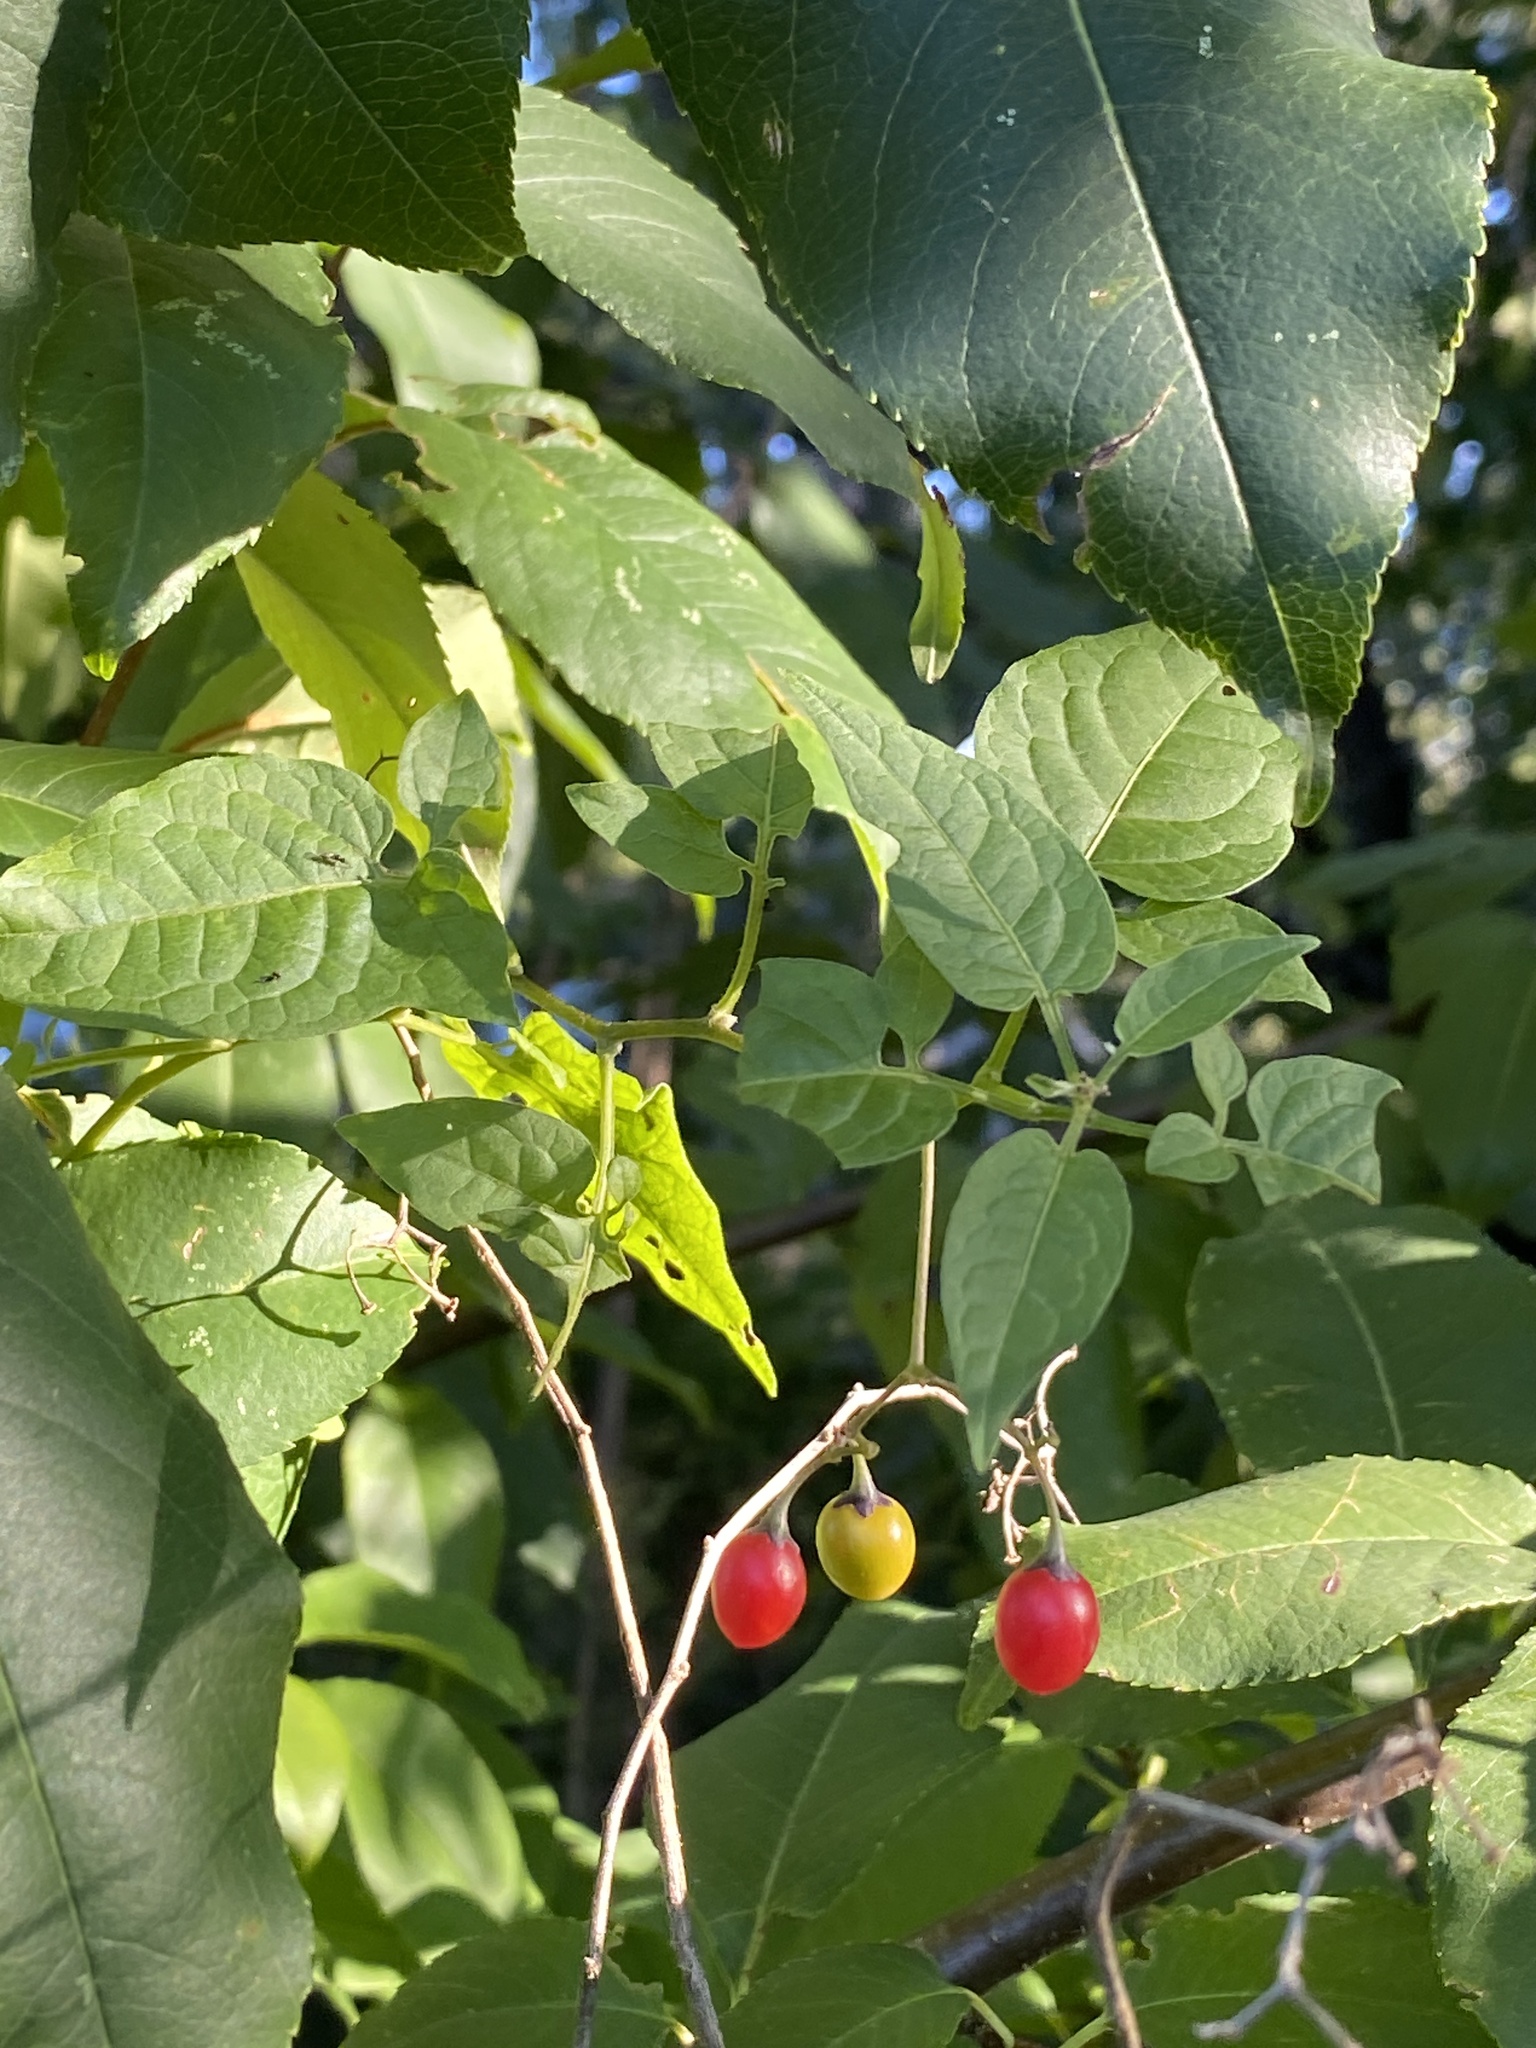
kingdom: Plantae
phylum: Tracheophyta
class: Magnoliopsida
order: Solanales
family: Solanaceae
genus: Solanum
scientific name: Solanum dulcamara
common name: Climbing nightshade
